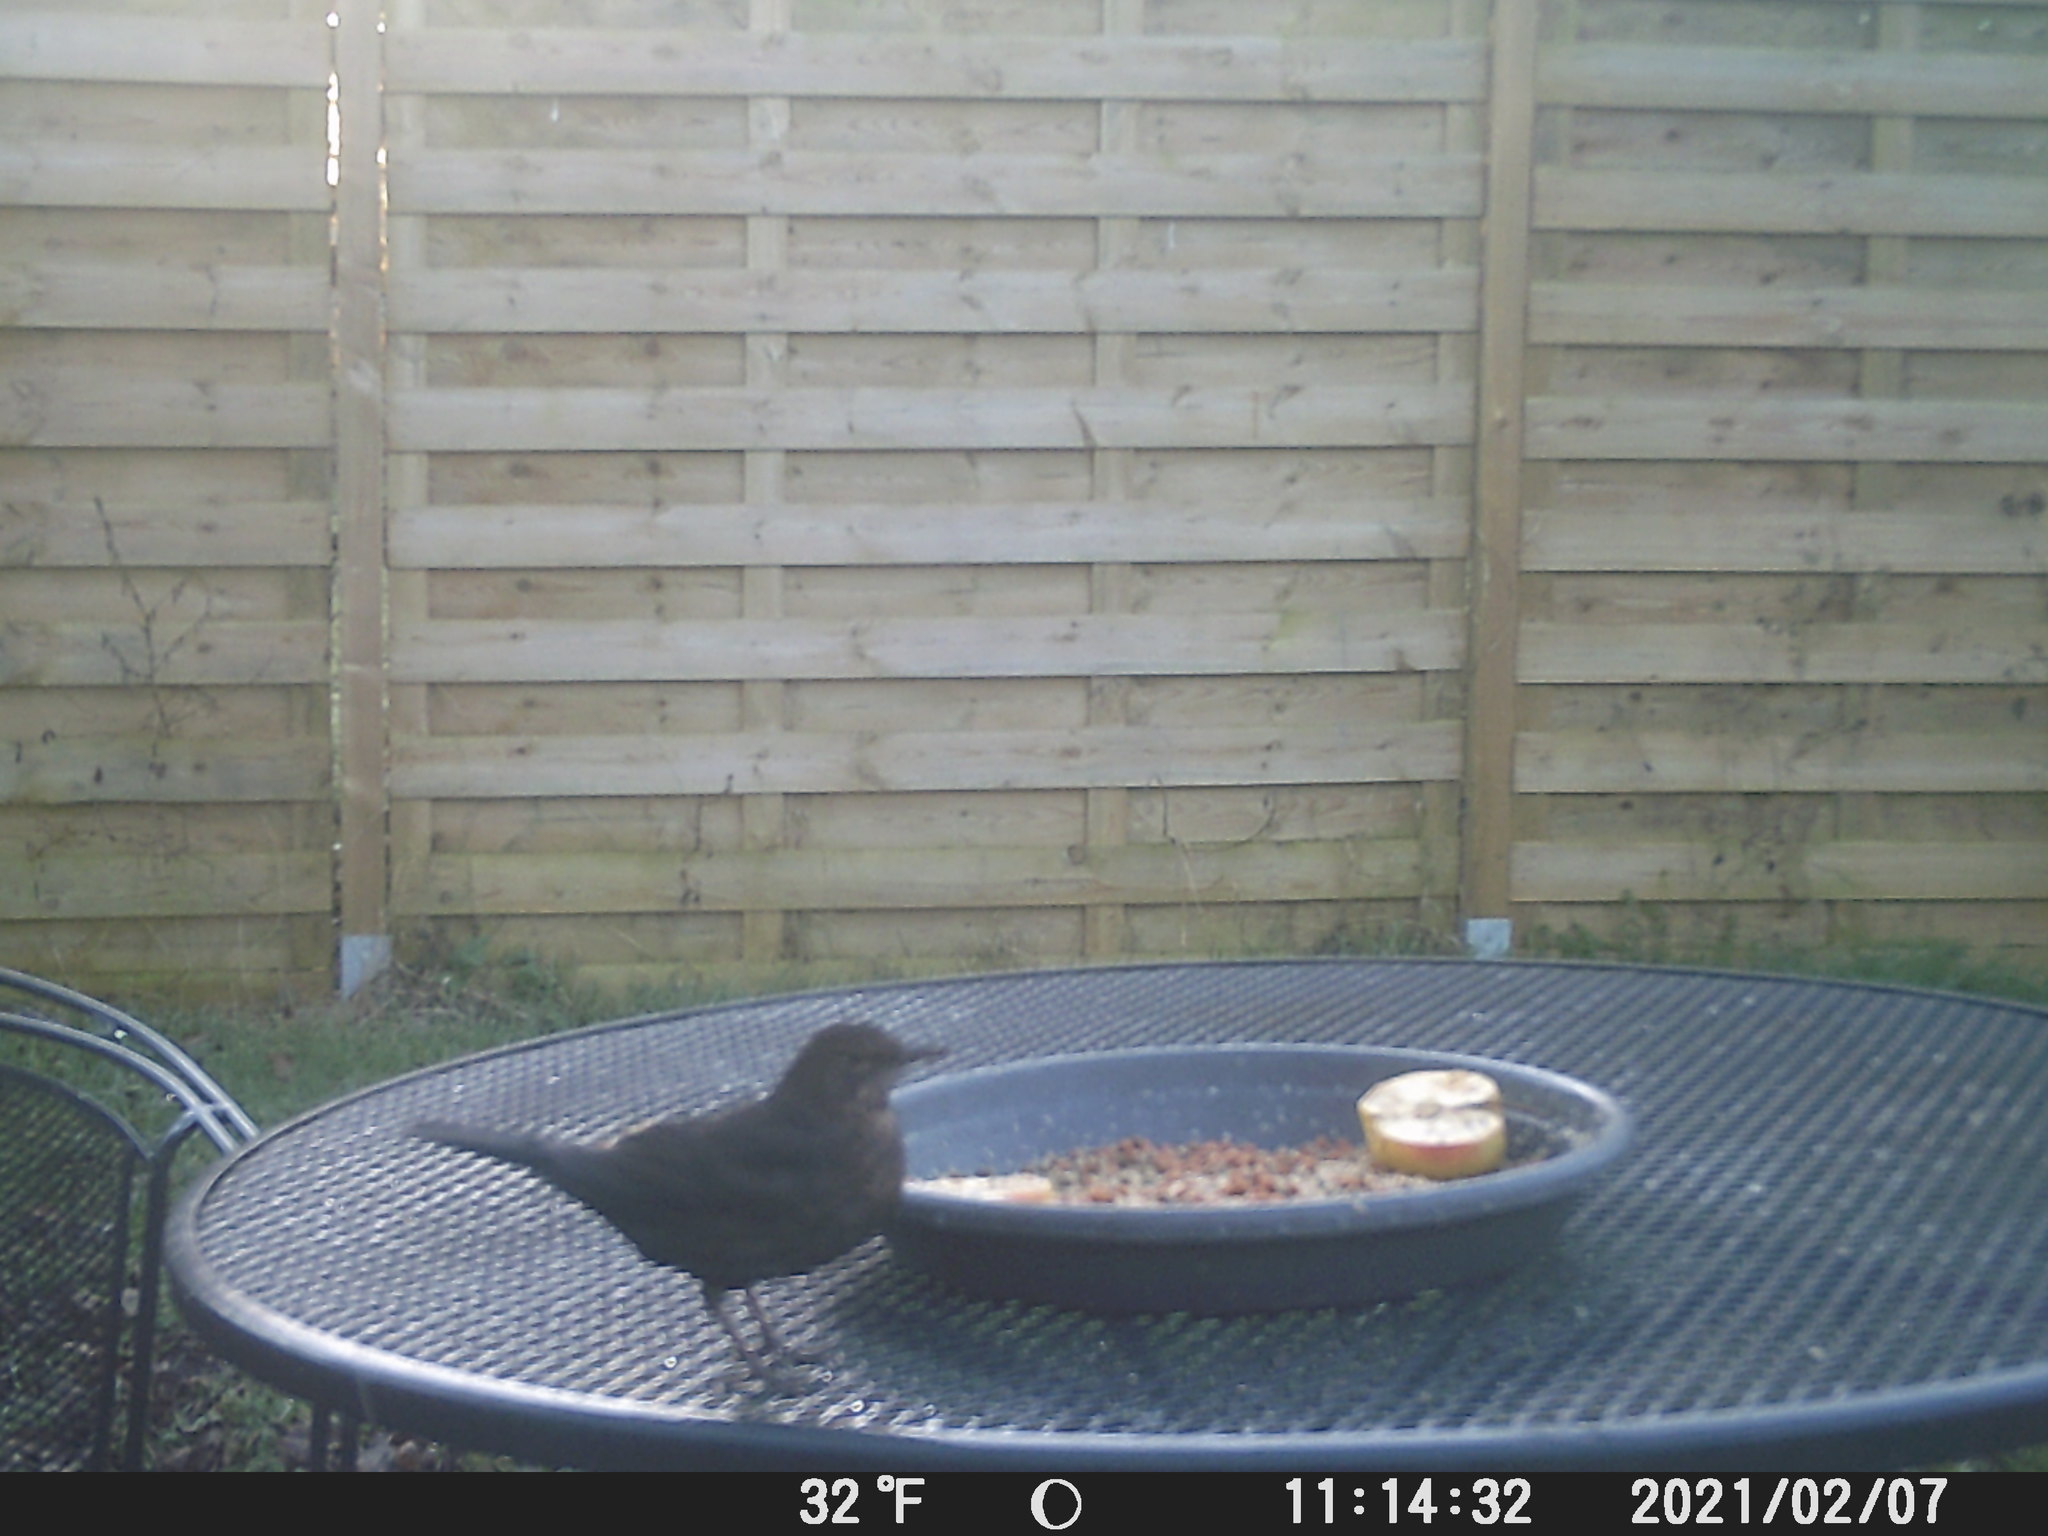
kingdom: Animalia
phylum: Chordata
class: Aves
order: Passeriformes
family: Turdidae
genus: Turdus
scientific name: Turdus merula
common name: Common blackbird
